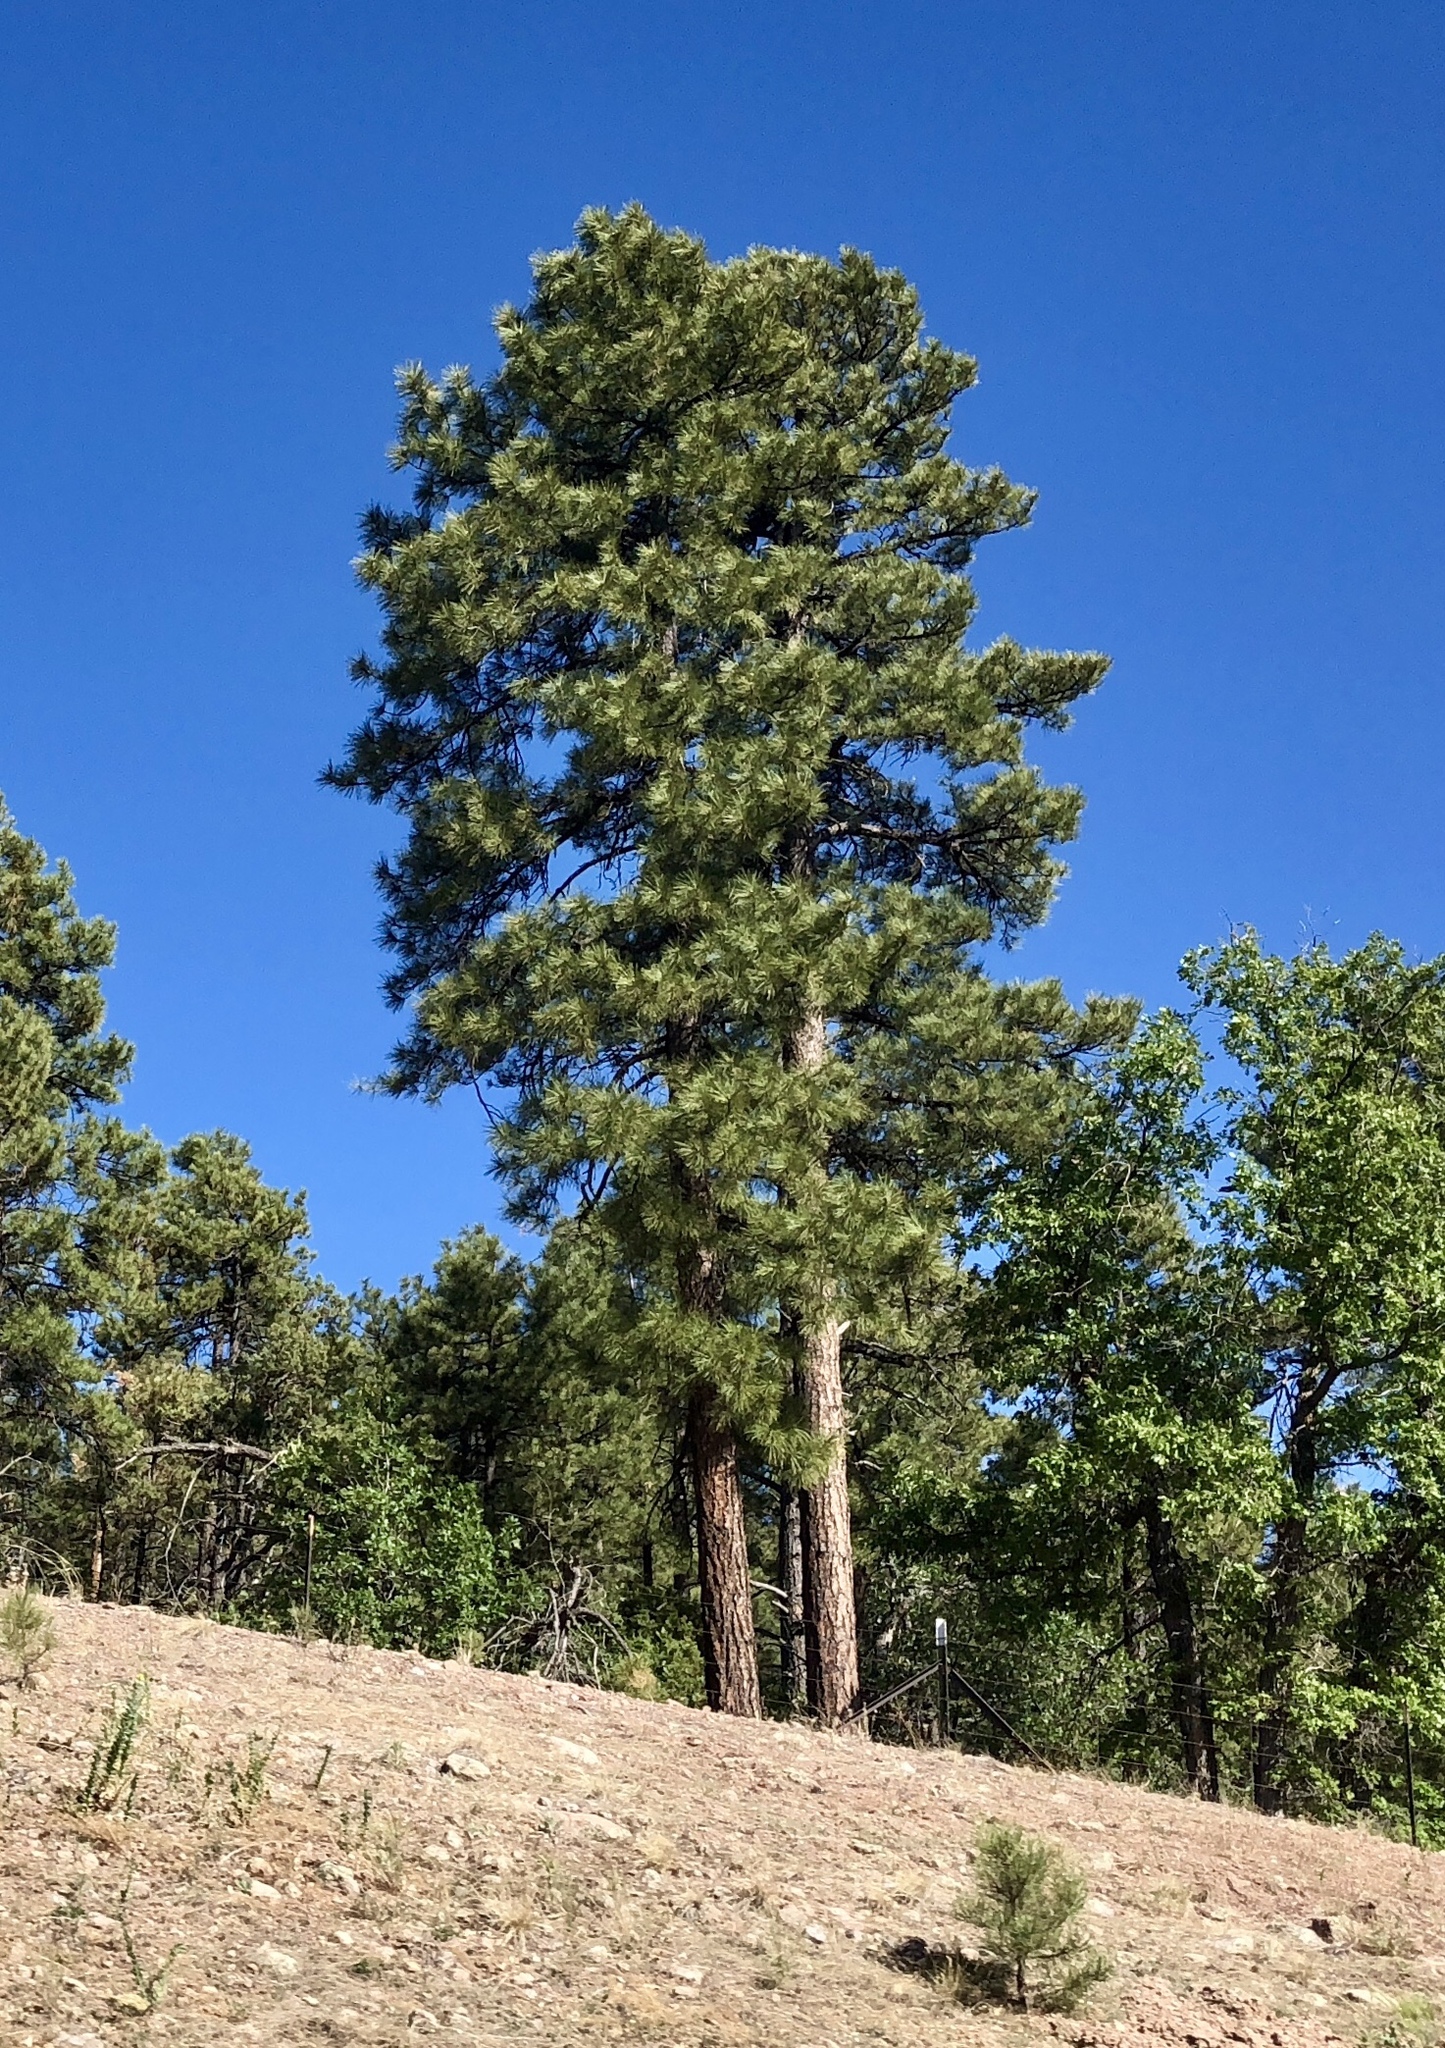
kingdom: Plantae
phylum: Tracheophyta
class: Pinopsida
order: Pinales
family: Pinaceae
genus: Pinus
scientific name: Pinus ponderosa
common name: Western yellow-pine
